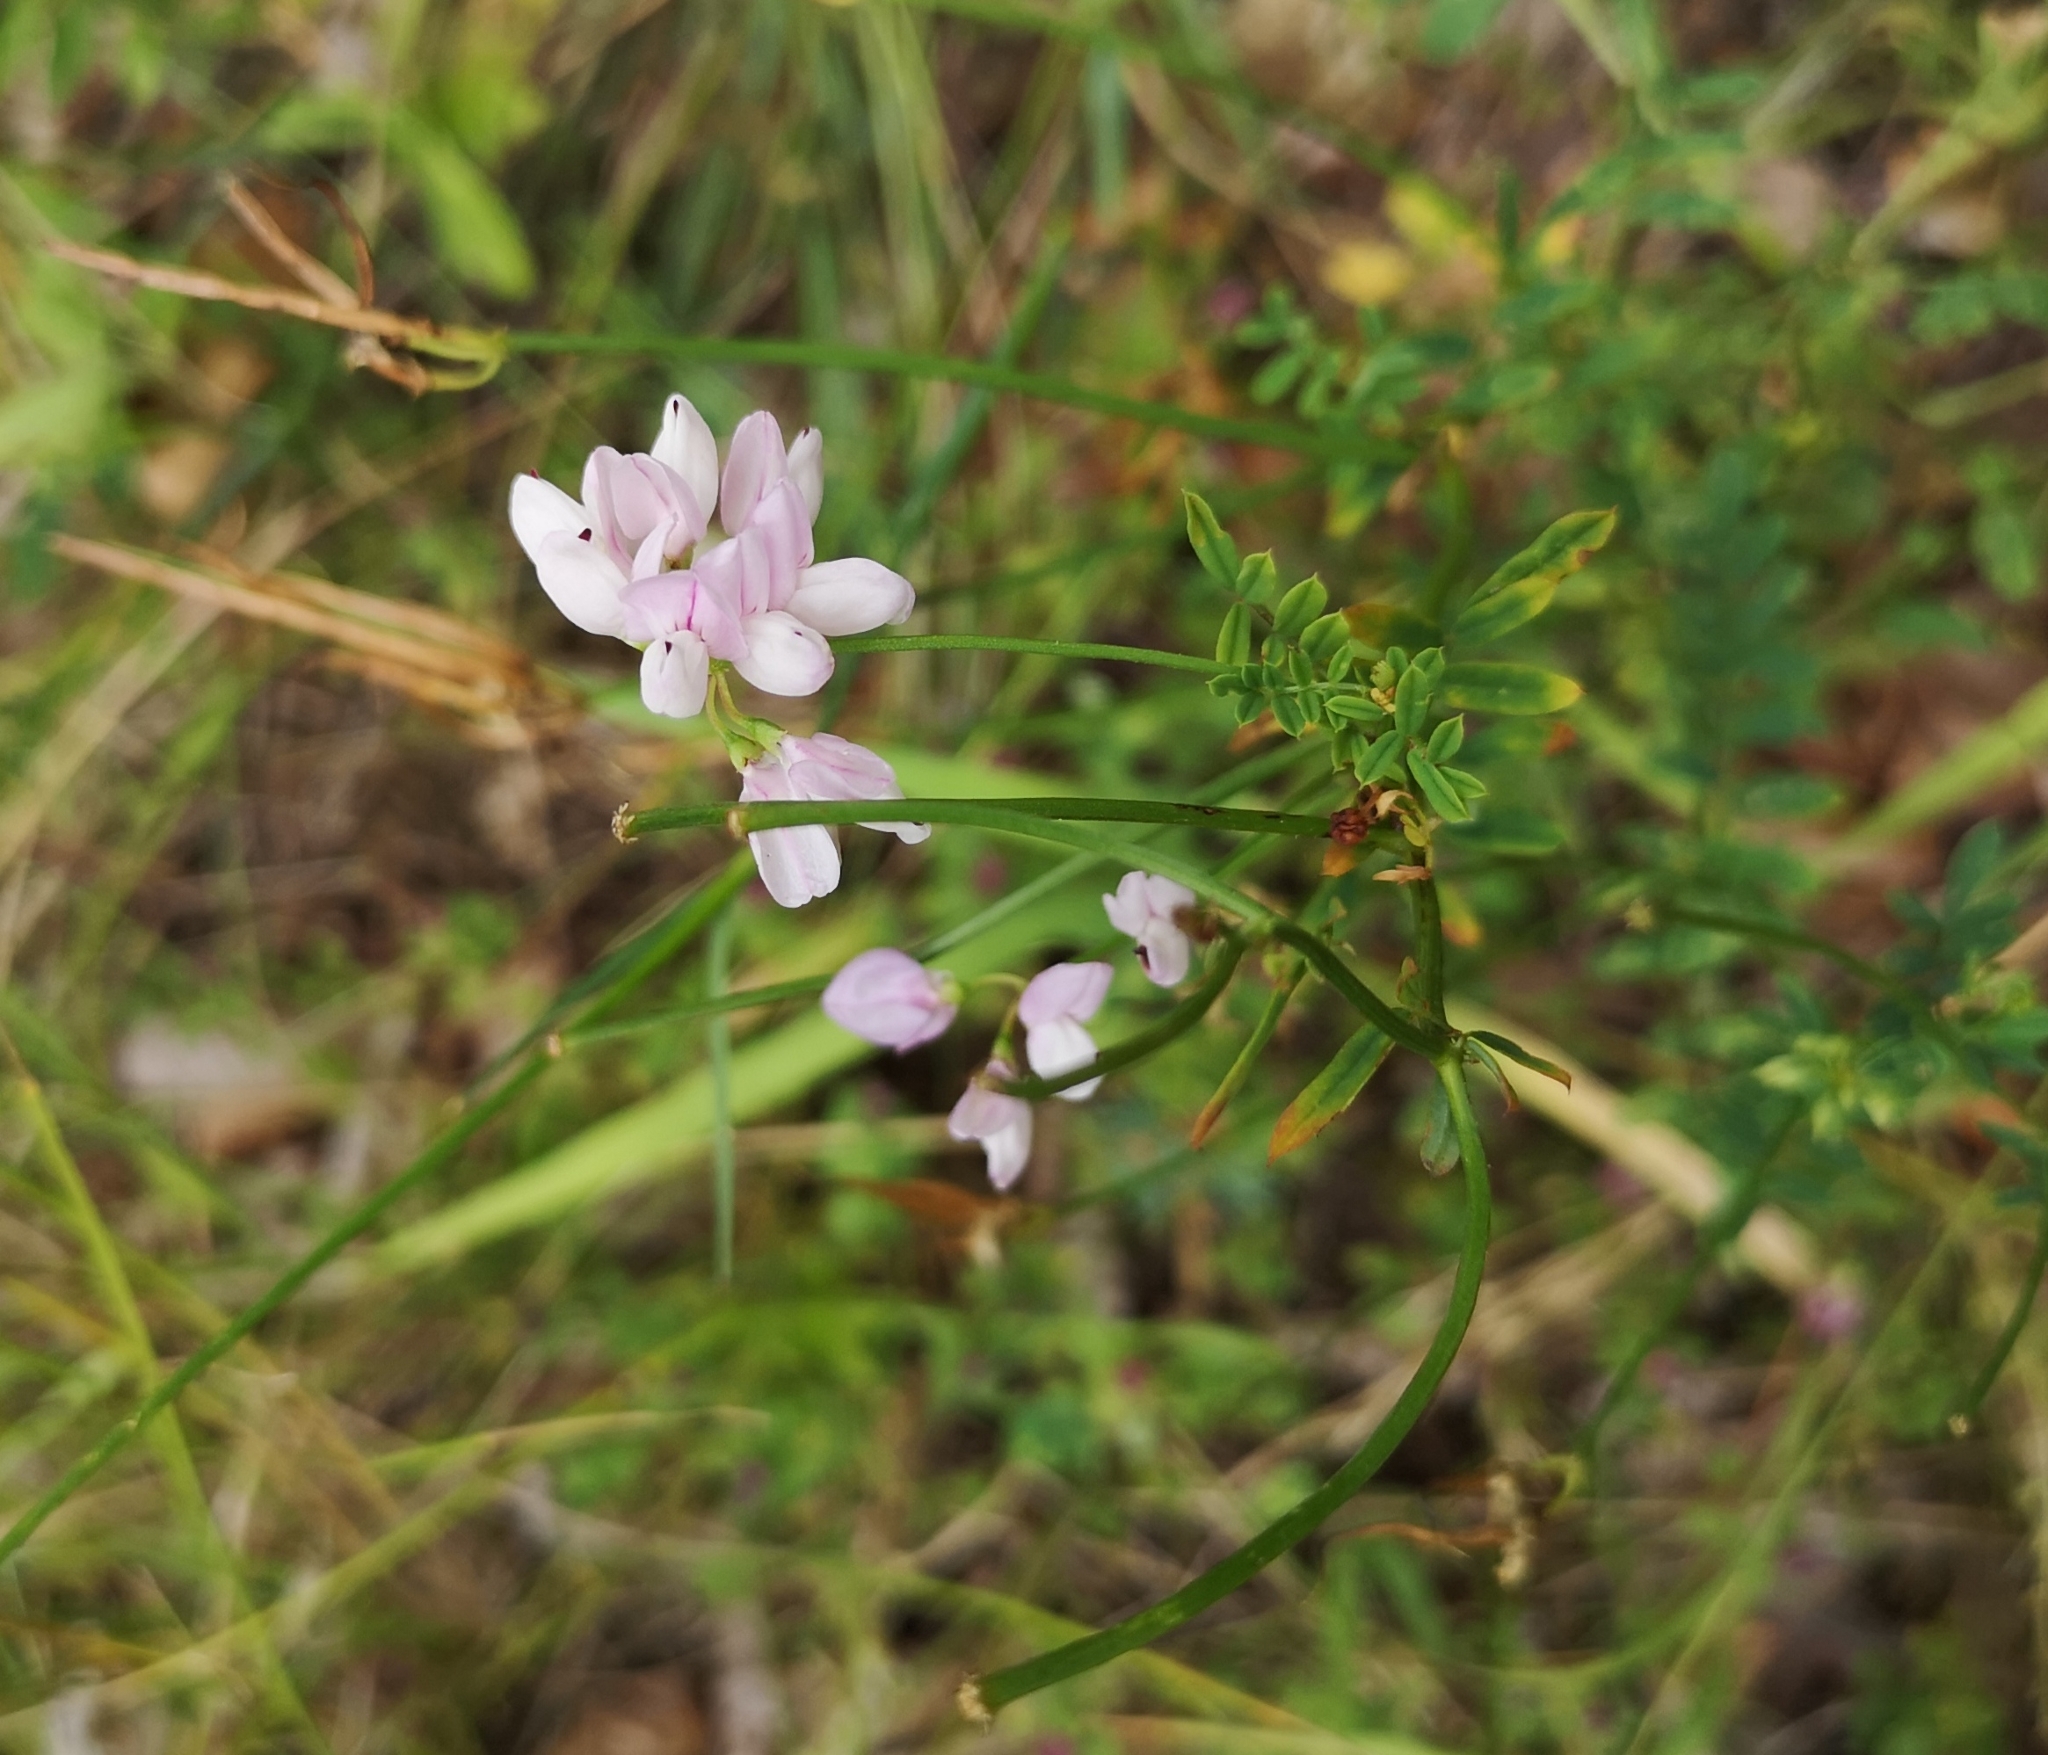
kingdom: Plantae
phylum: Tracheophyta
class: Magnoliopsida
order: Fabales
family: Fabaceae
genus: Coronilla
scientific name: Coronilla varia
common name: Crownvetch
